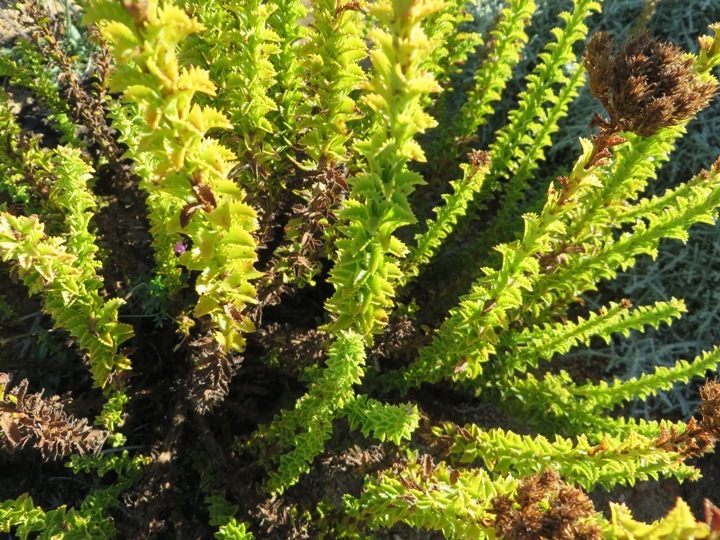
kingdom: Plantae
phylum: Tracheophyta
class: Magnoliopsida
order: Lamiales
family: Scrophulariaceae
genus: Pseudoselago
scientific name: Pseudoselago serrata
